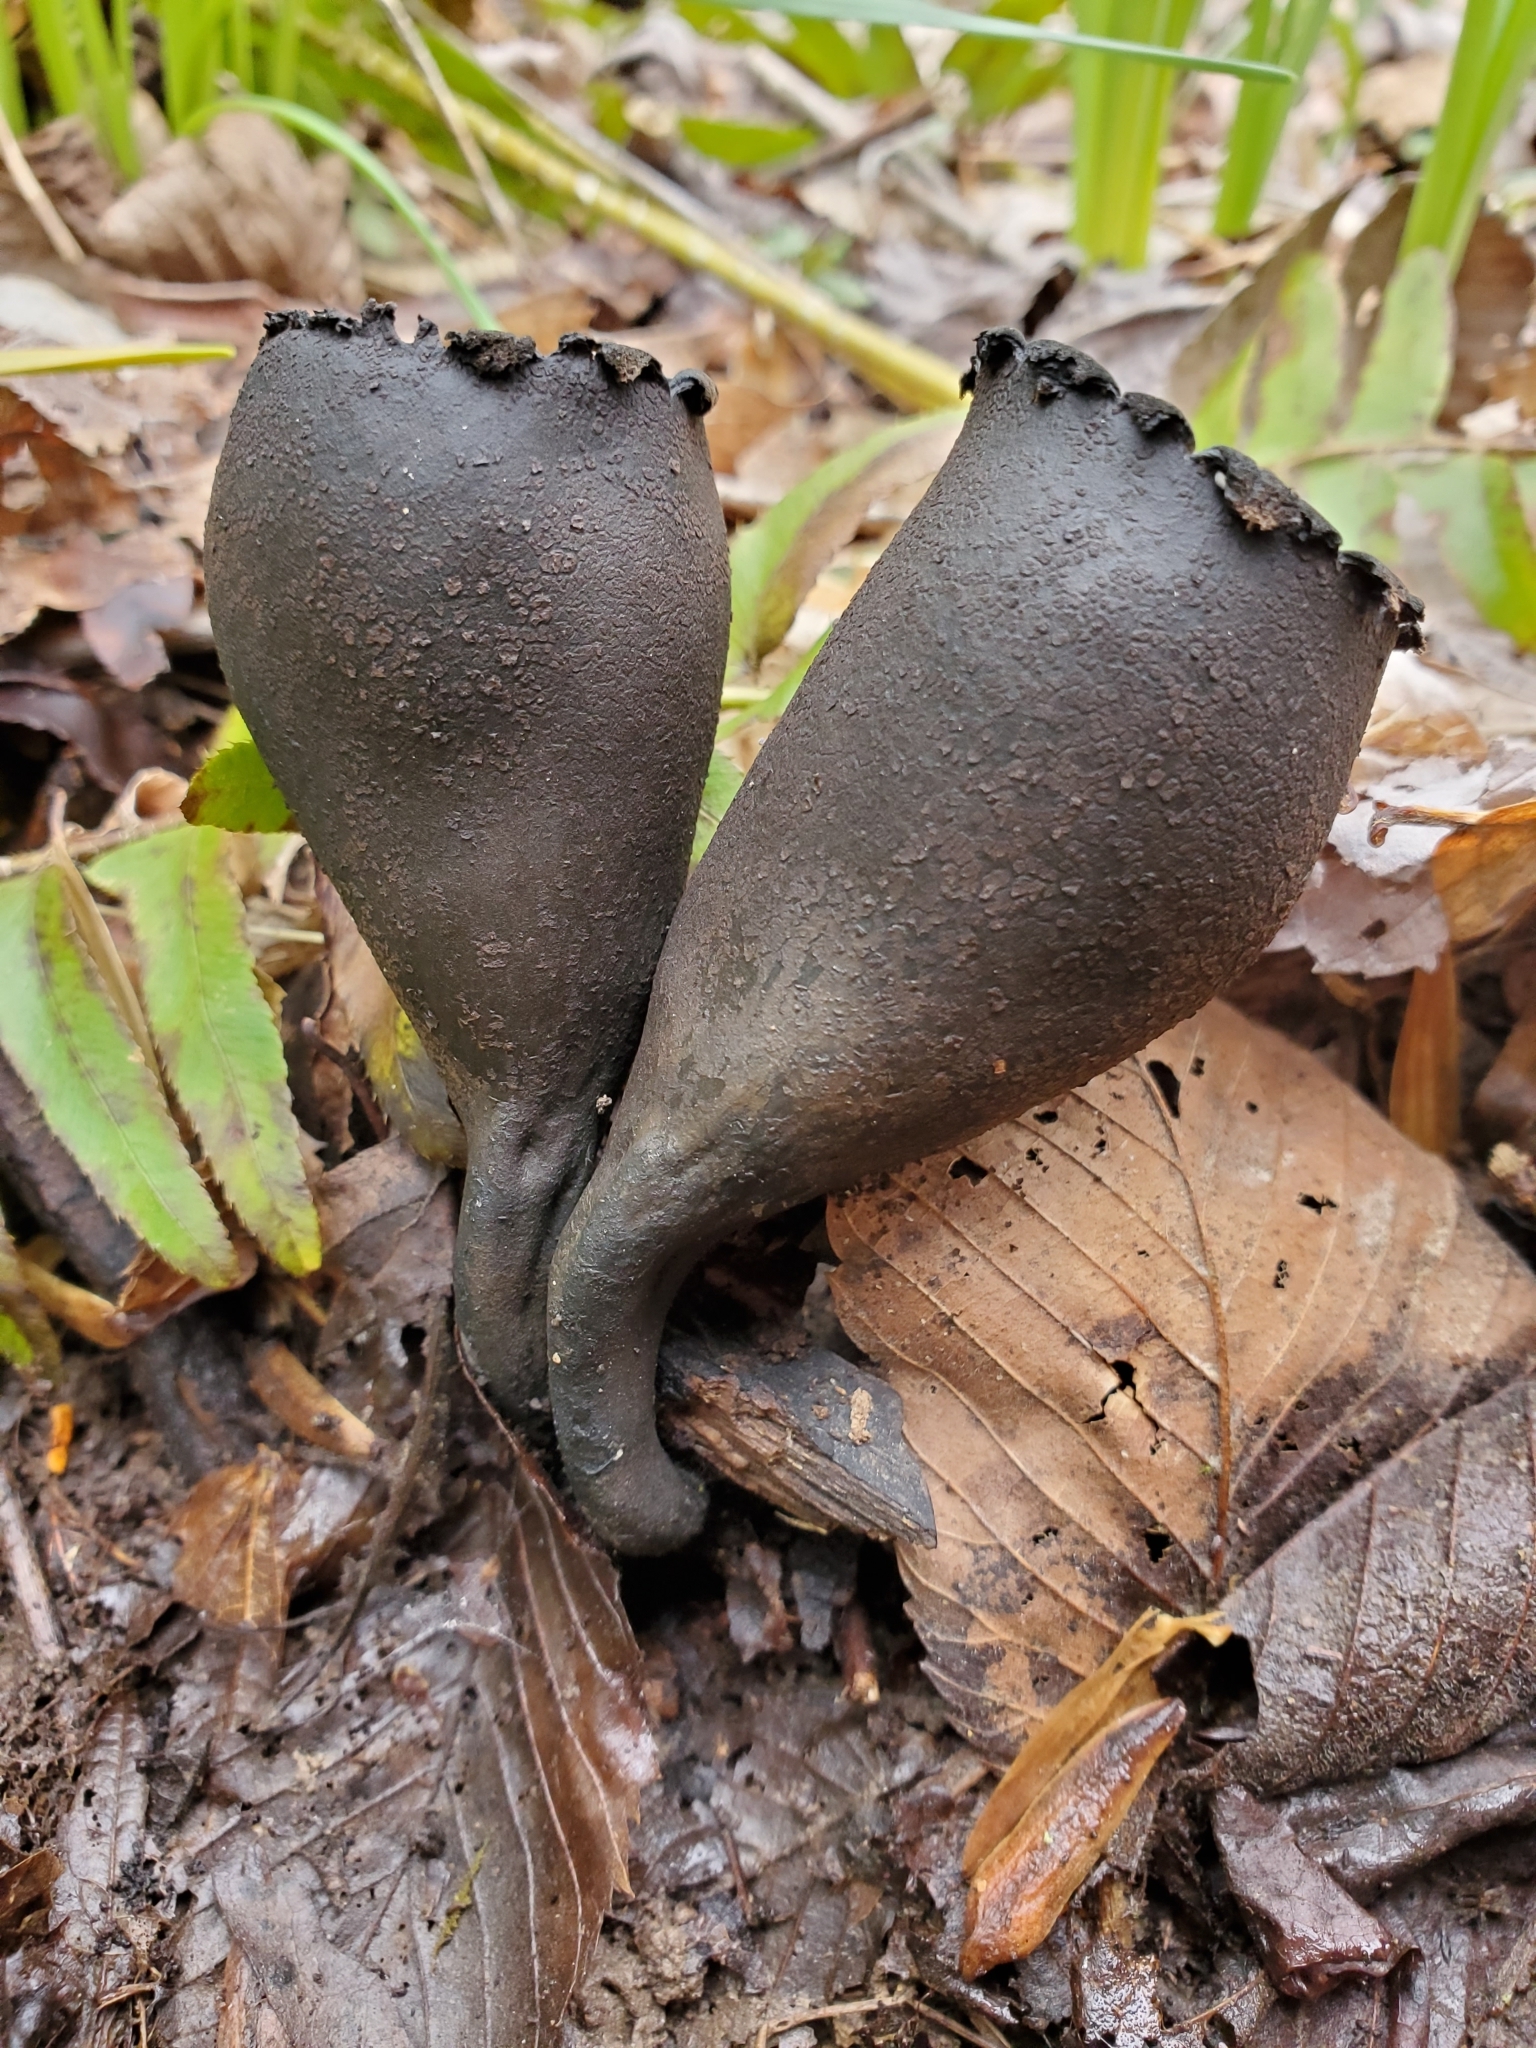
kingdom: Fungi
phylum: Ascomycota
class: Pezizomycetes
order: Pezizales
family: Sarcosomataceae
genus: Urnula
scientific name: Urnula craterium
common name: Devil's urn
